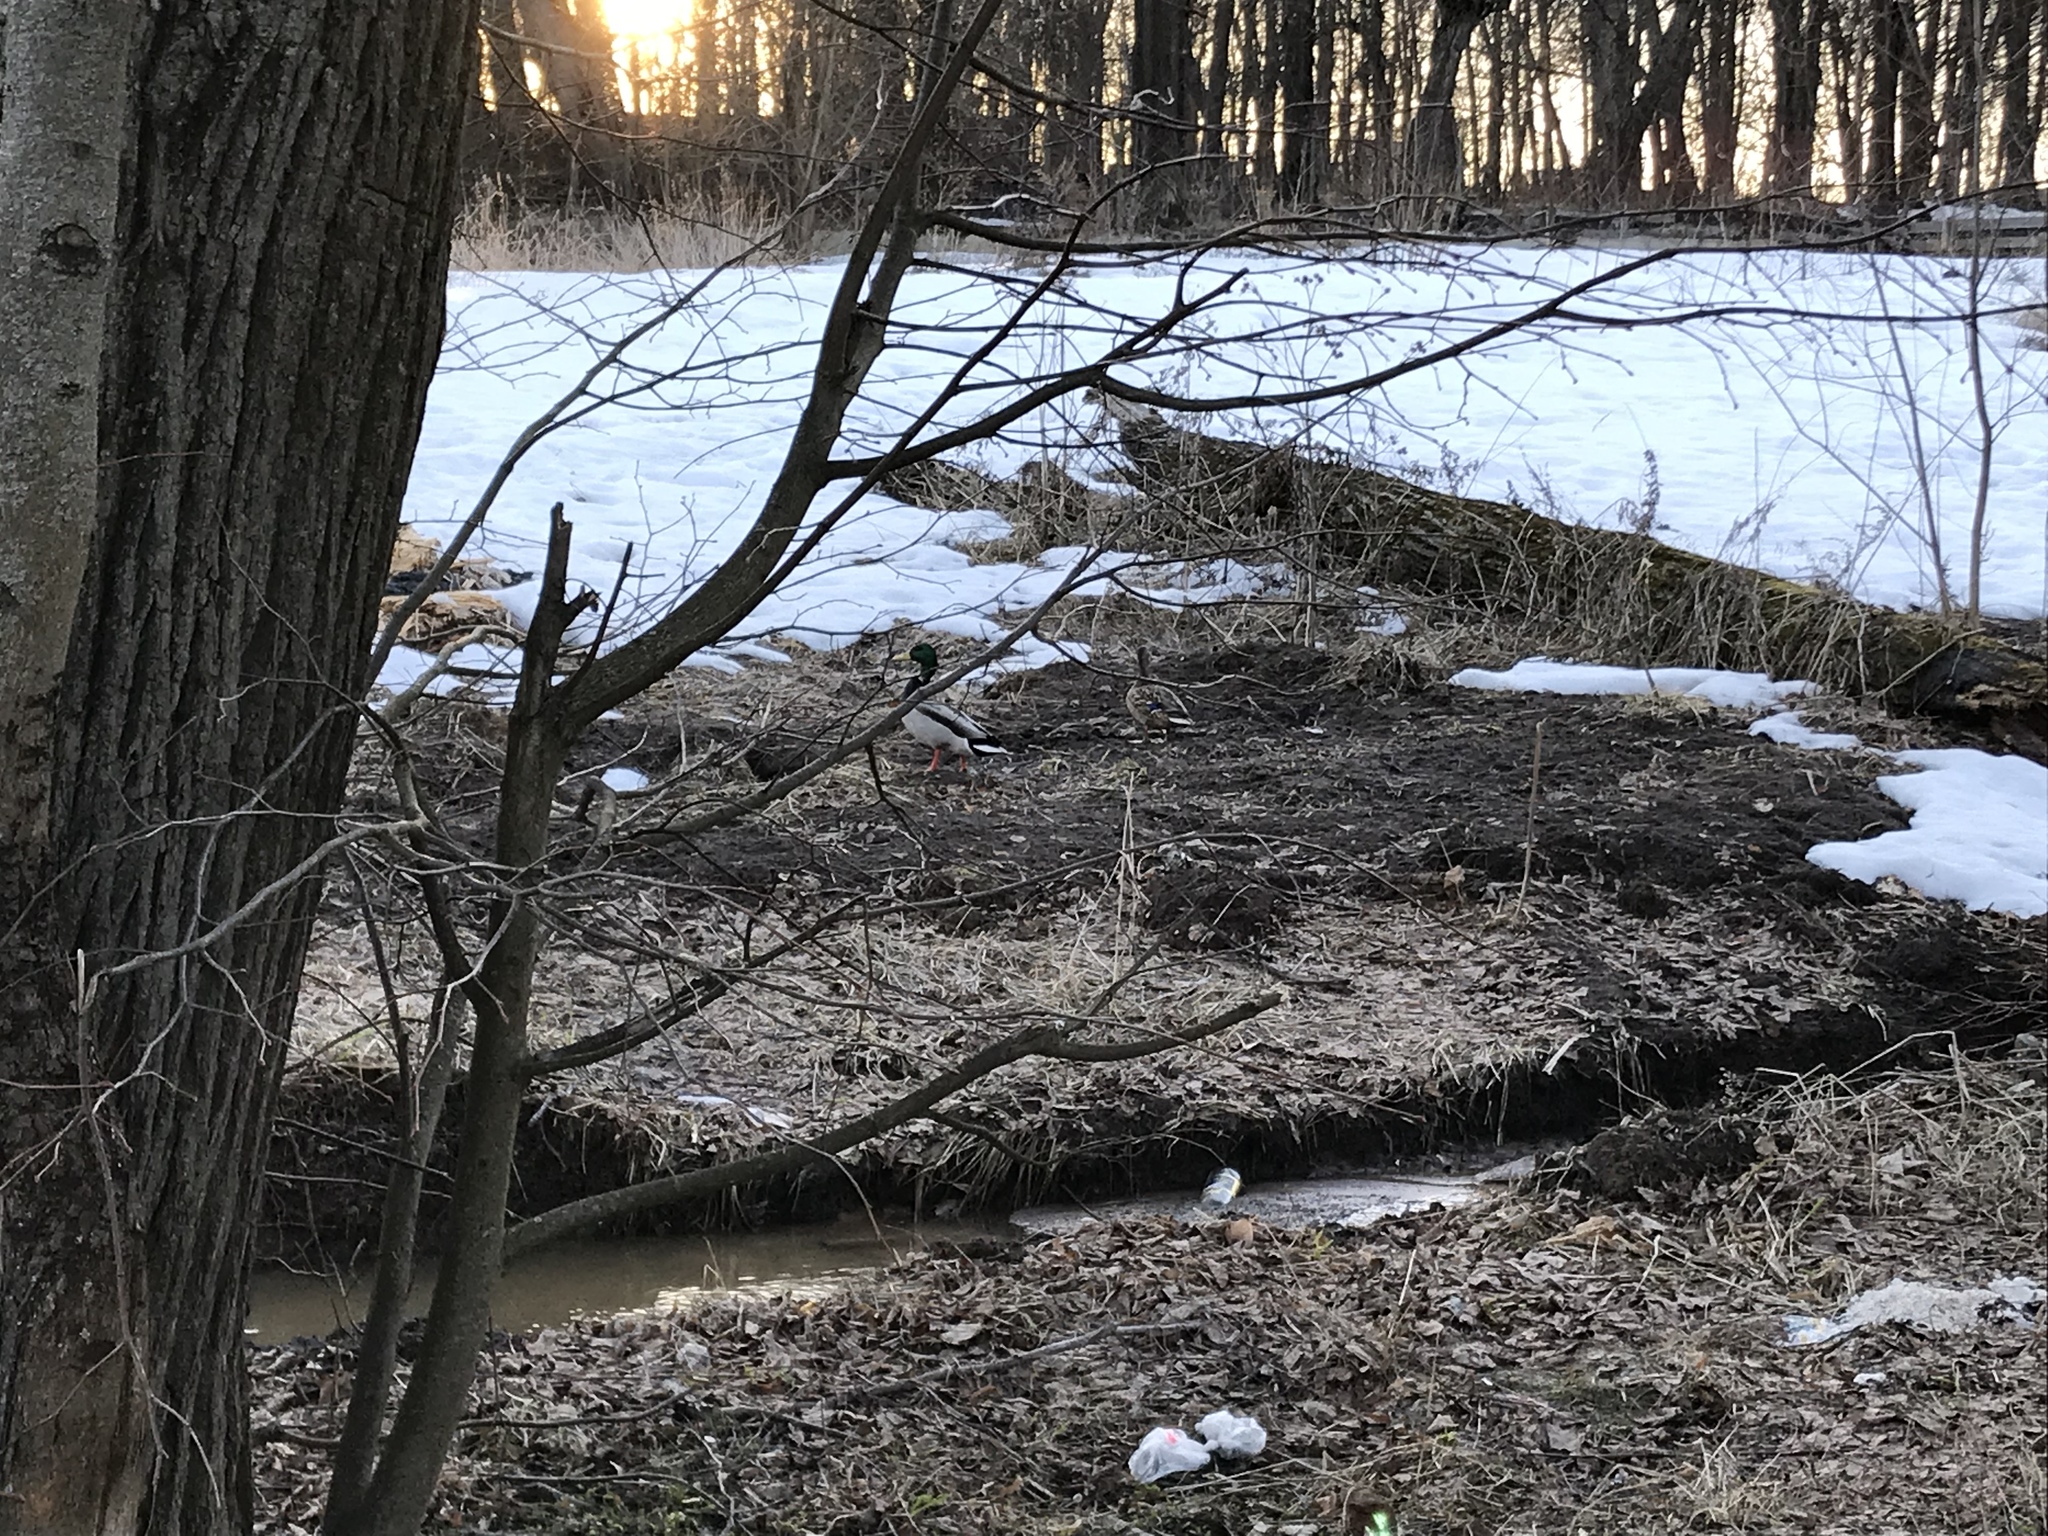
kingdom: Animalia
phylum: Chordata
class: Aves
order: Anseriformes
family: Anatidae
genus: Anas
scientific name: Anas platyrhynchos
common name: Mallard
